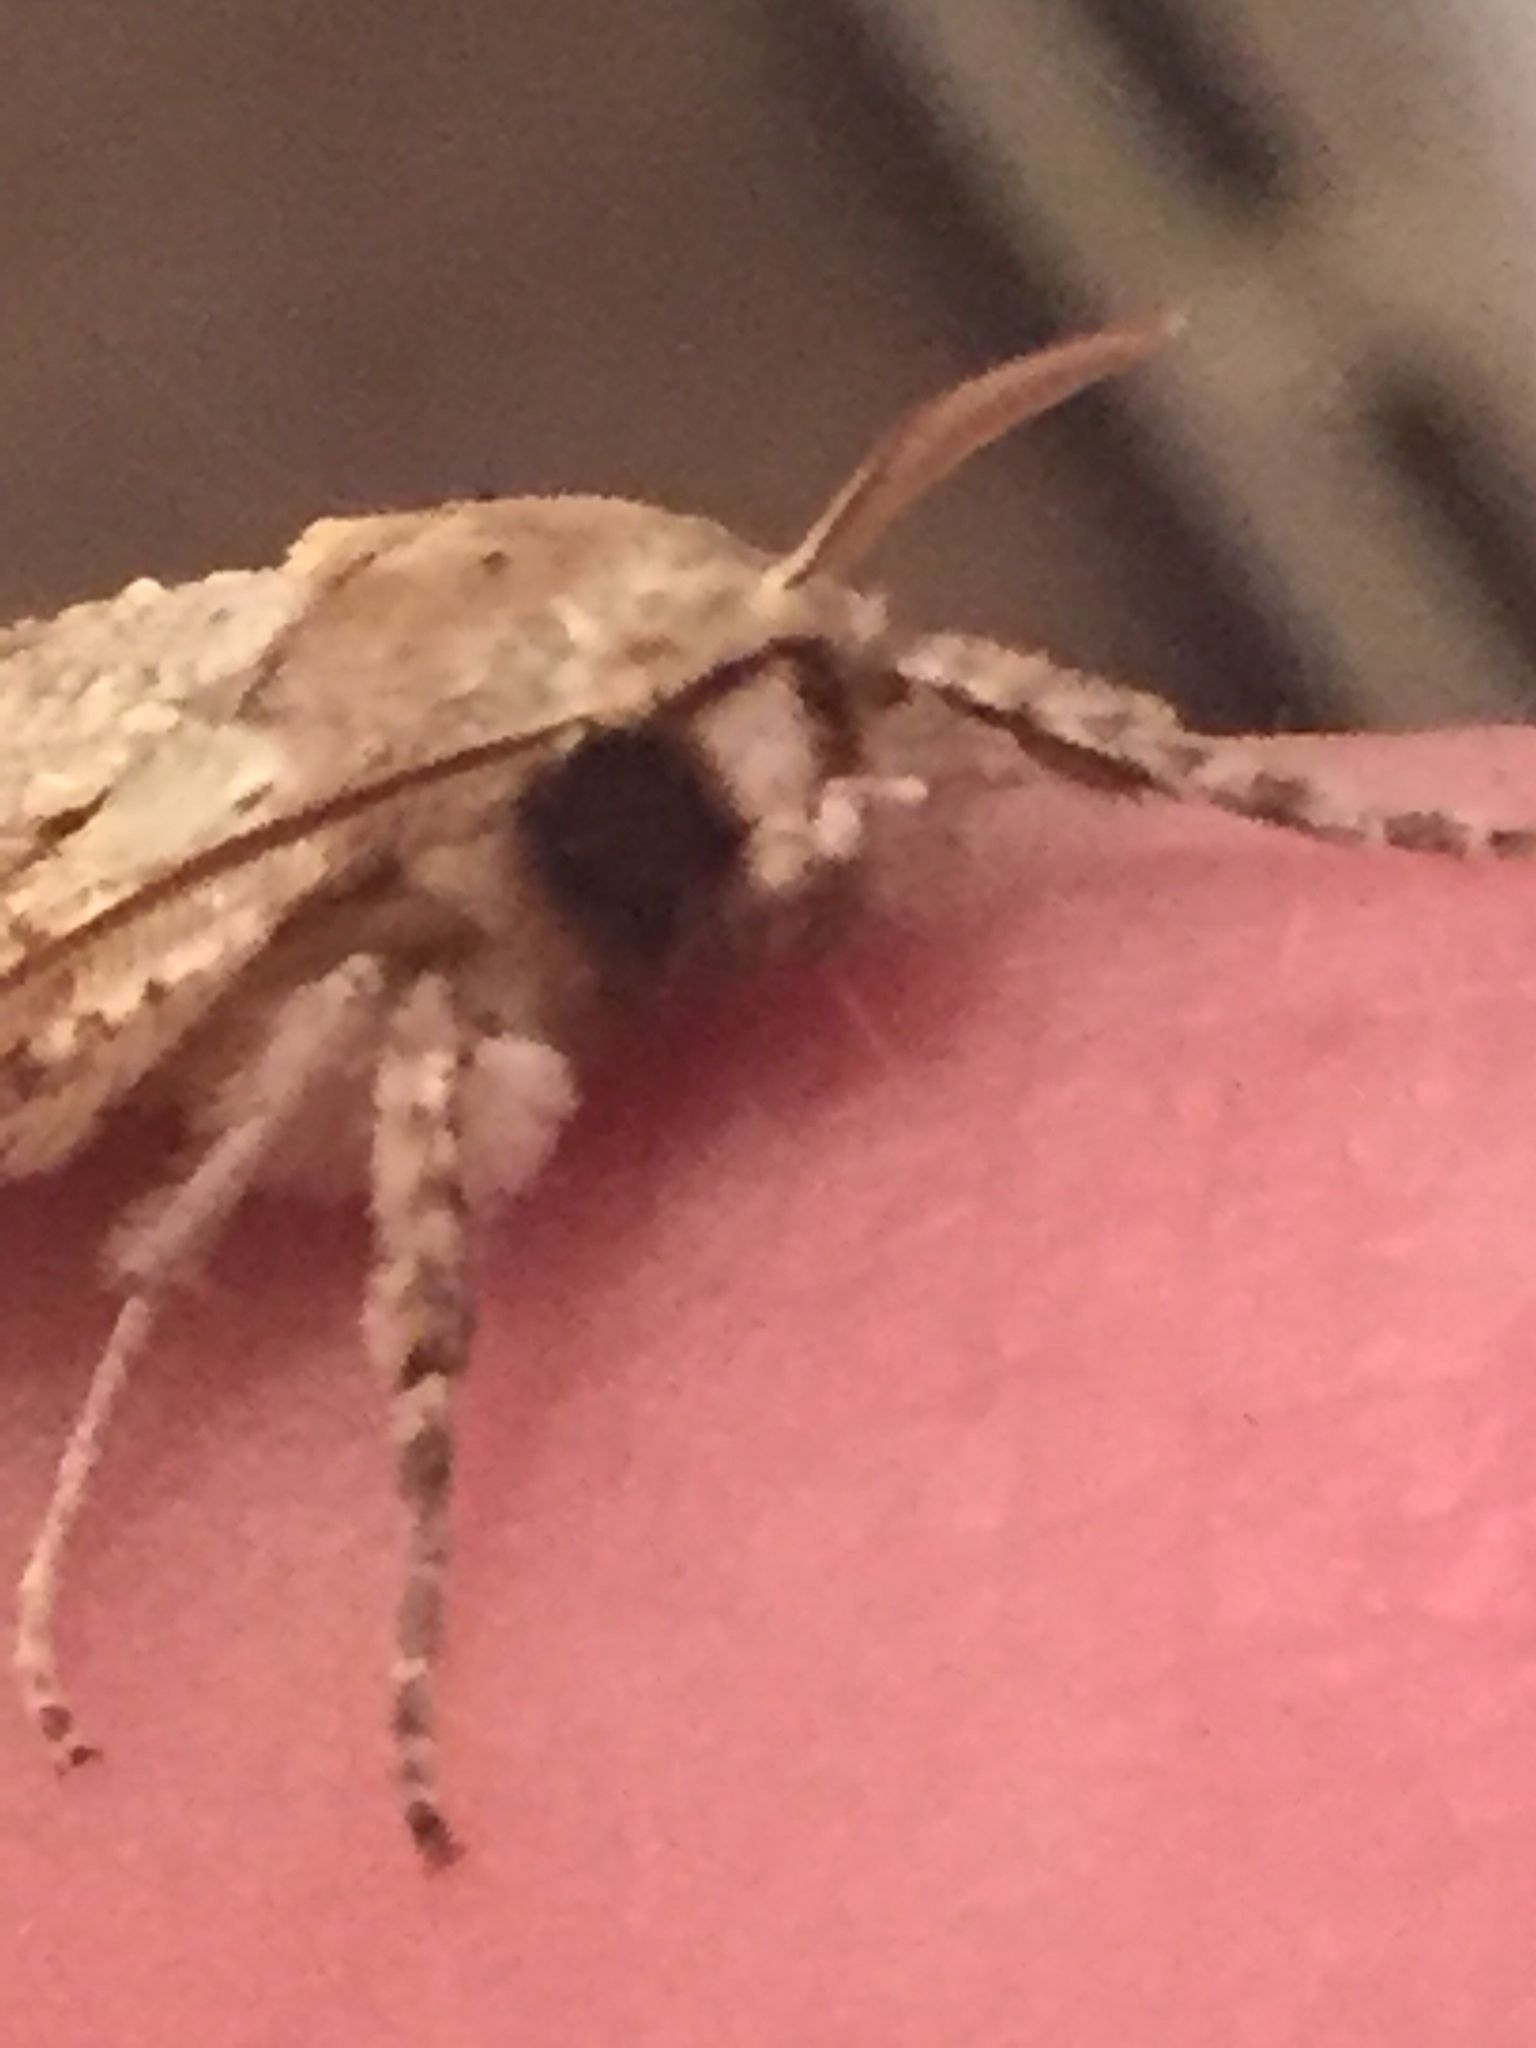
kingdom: Animalia
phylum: Arthropoda
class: Insecta
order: Lepidoptera
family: Geometridae
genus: Declana
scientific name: Declana floccosa
